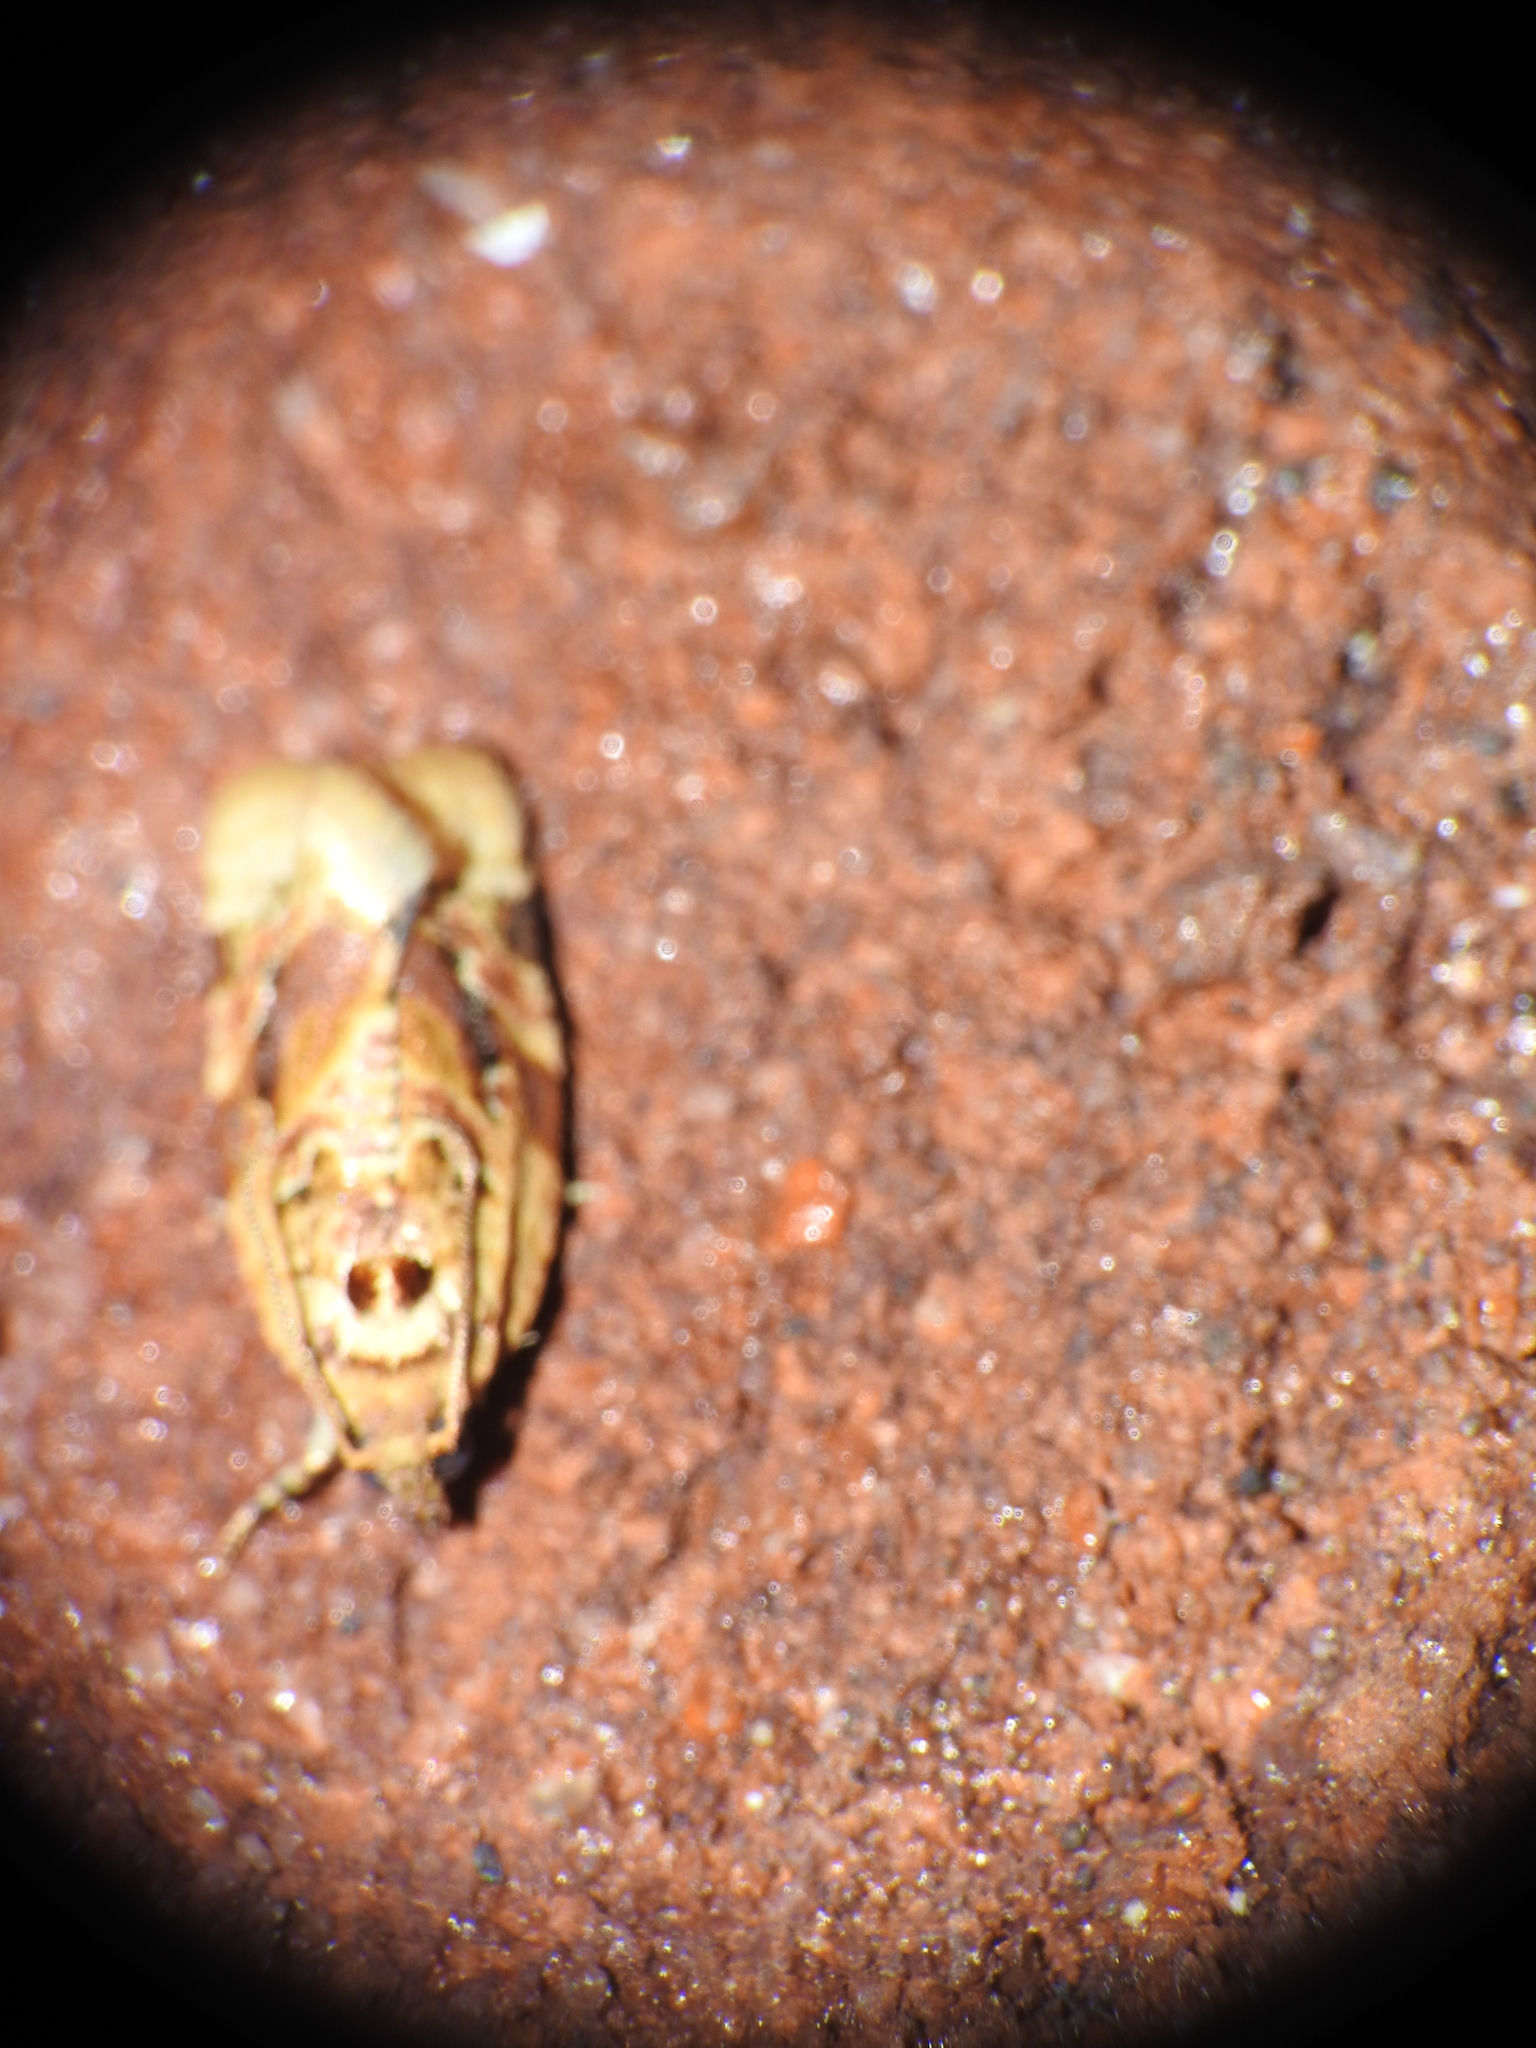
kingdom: Animalia
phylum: Arthropoda
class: Insecta
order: Lepidoptera
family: Tortricidae
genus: Argyrotaenia
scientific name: Argyrotaenia velutinana
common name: Red-banded leafroller moth
